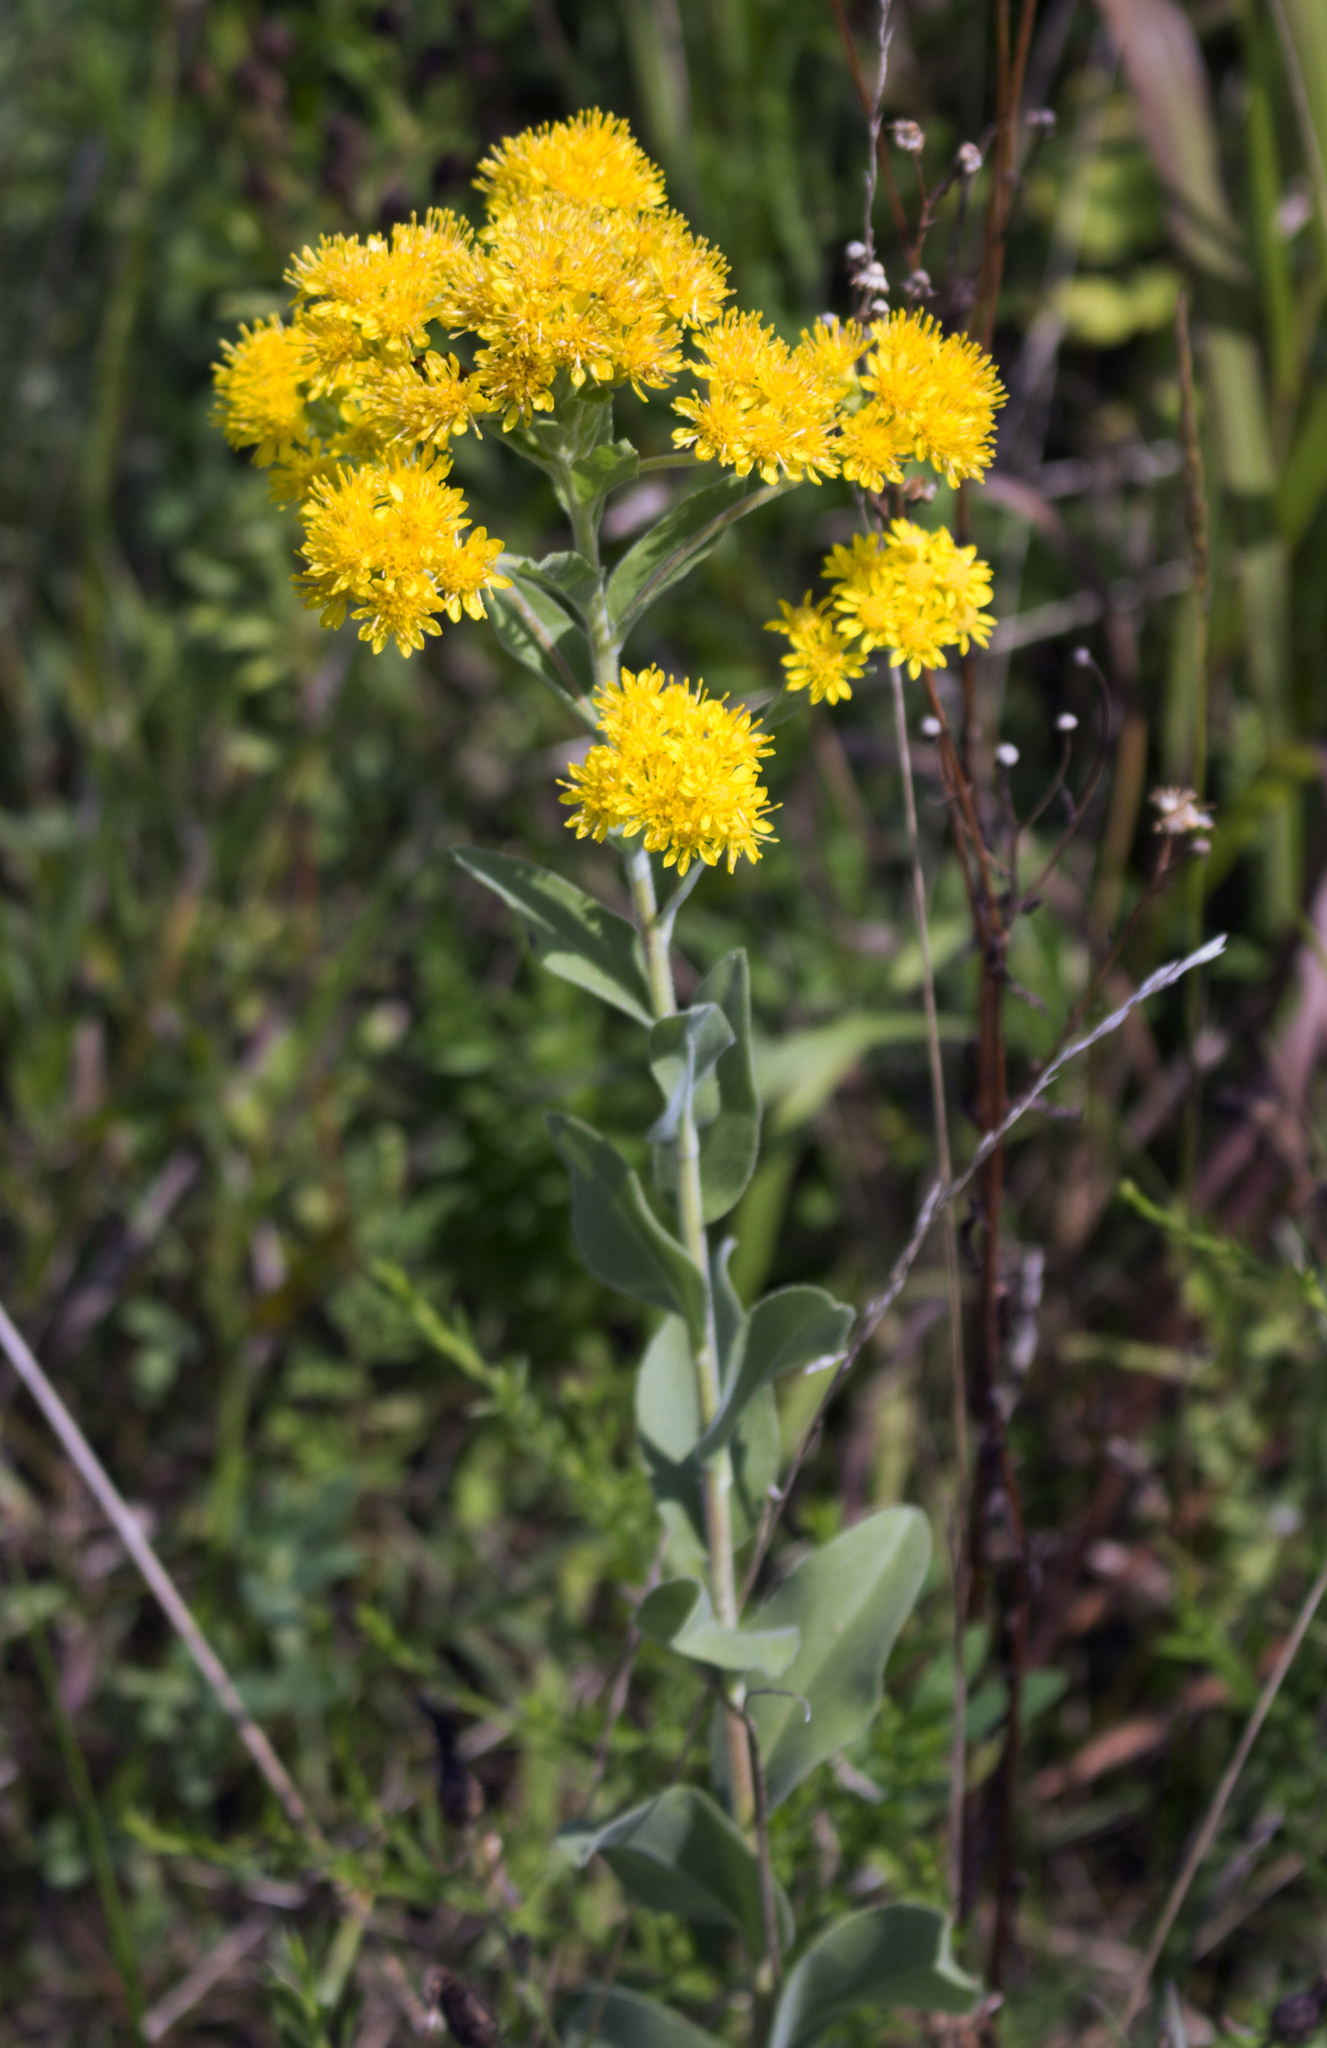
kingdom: Plantae
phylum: Tracheophyta
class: Magnoliopsida
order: Asterales
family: Asteraceae
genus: Solidago
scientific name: Solidago rigida
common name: Rigid goldenrod
